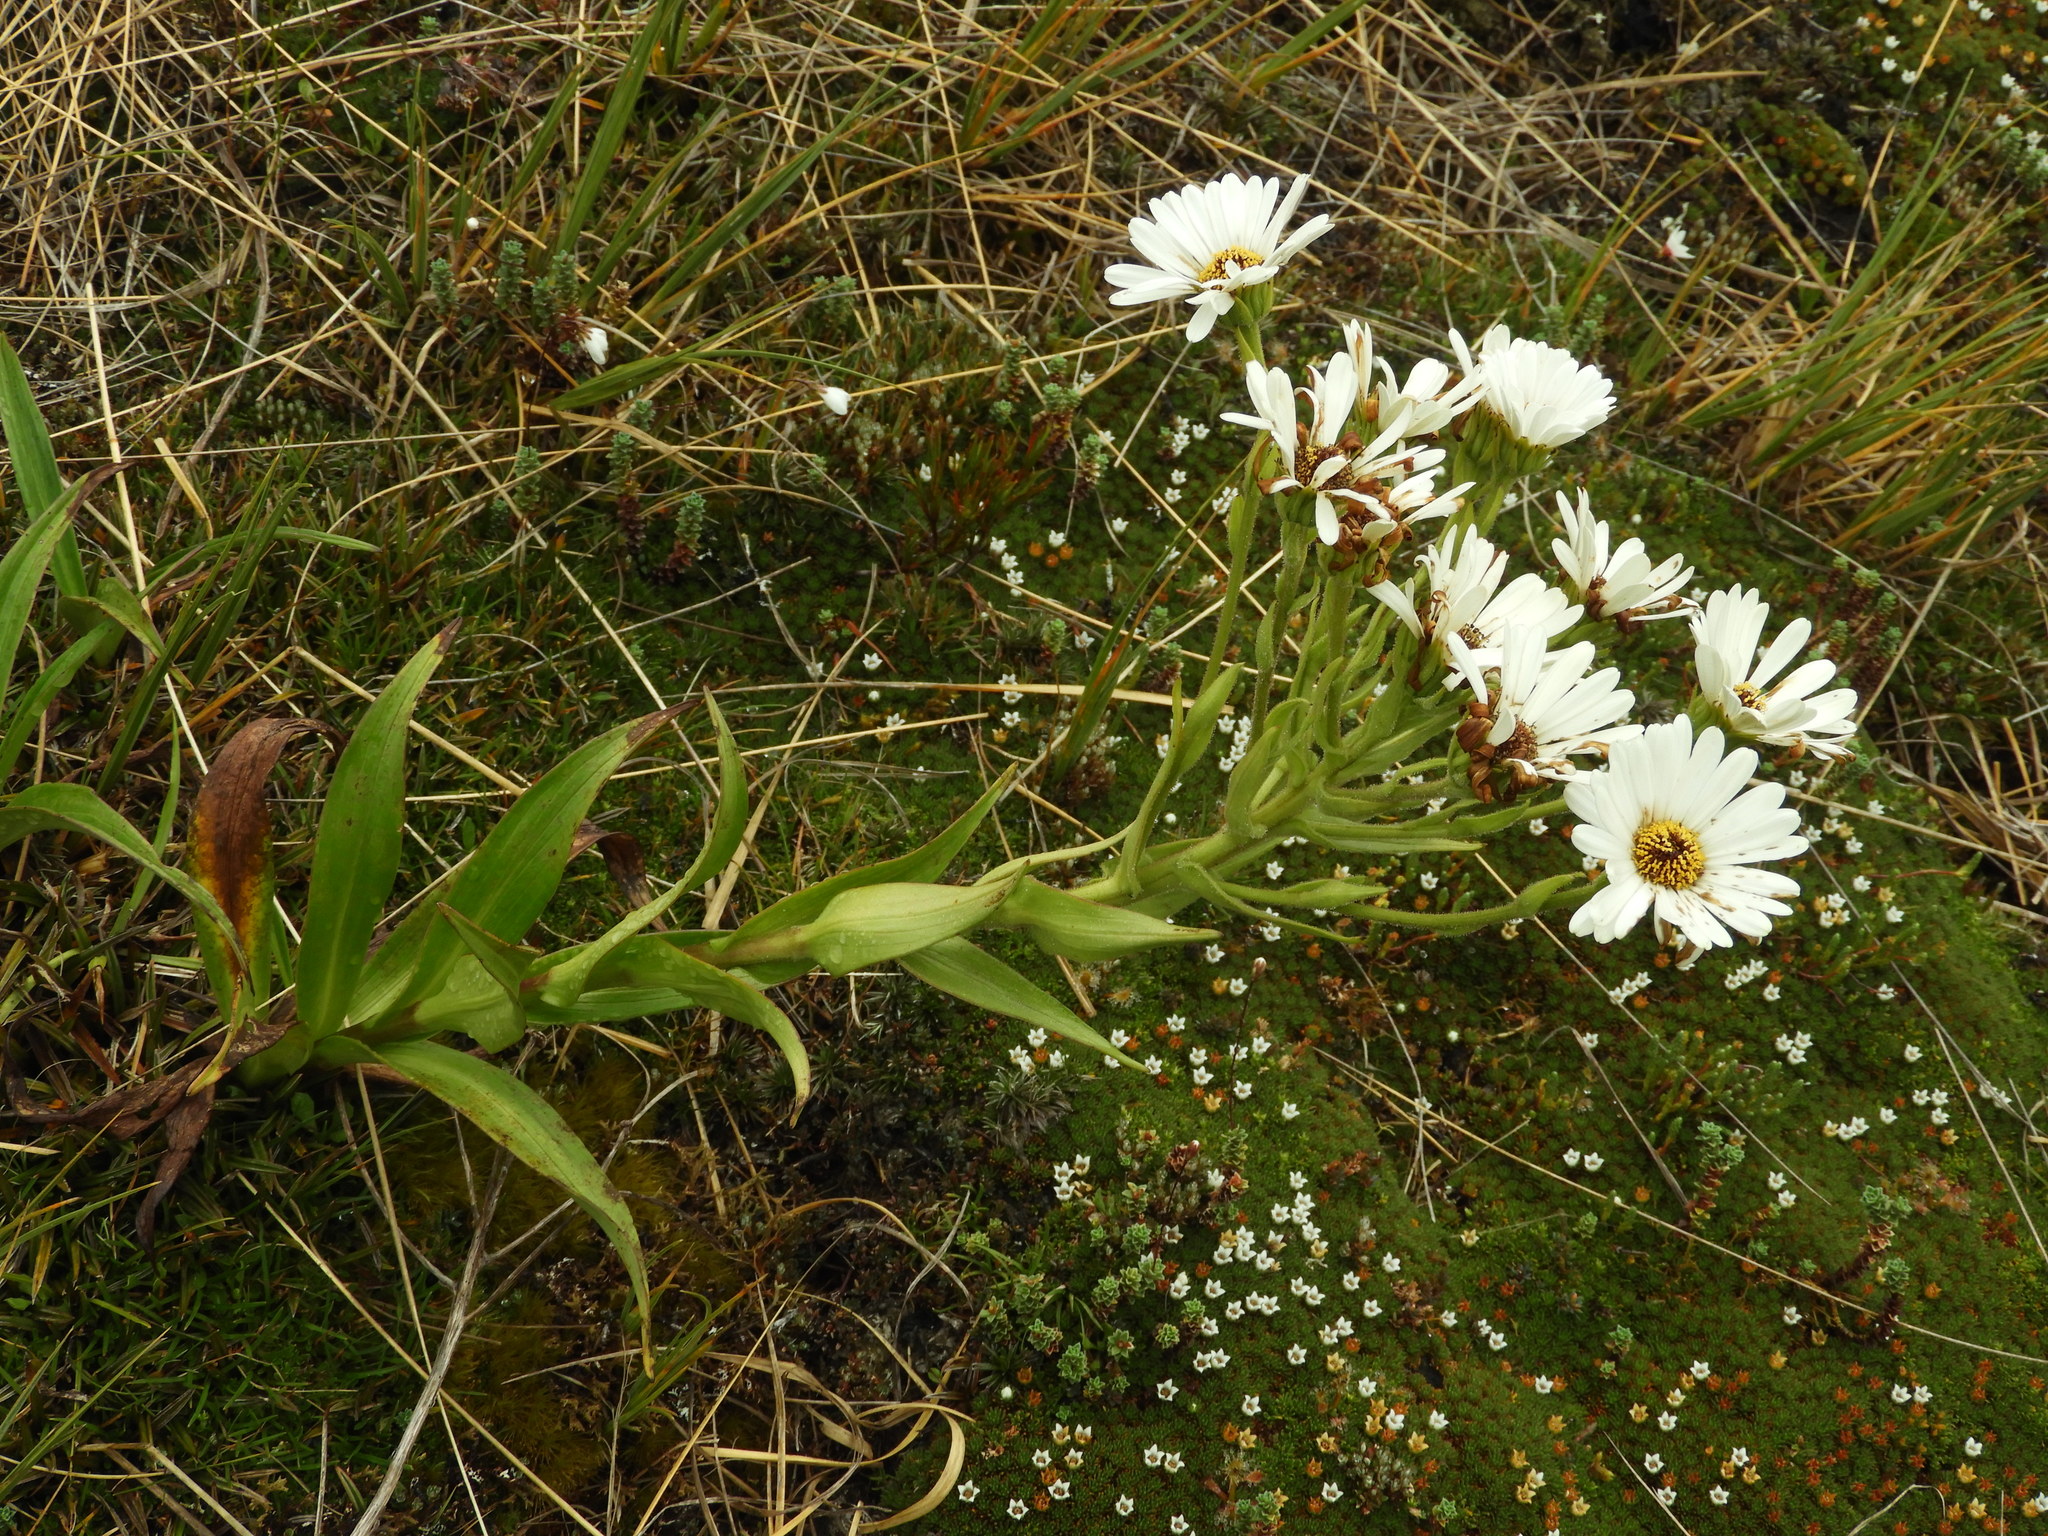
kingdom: Plantae
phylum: Tracheophyta
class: Magnoliopsida
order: Asterales
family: Asteraceae
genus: Dolichoglottis
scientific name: Dolichoglottis scorzoneroides
